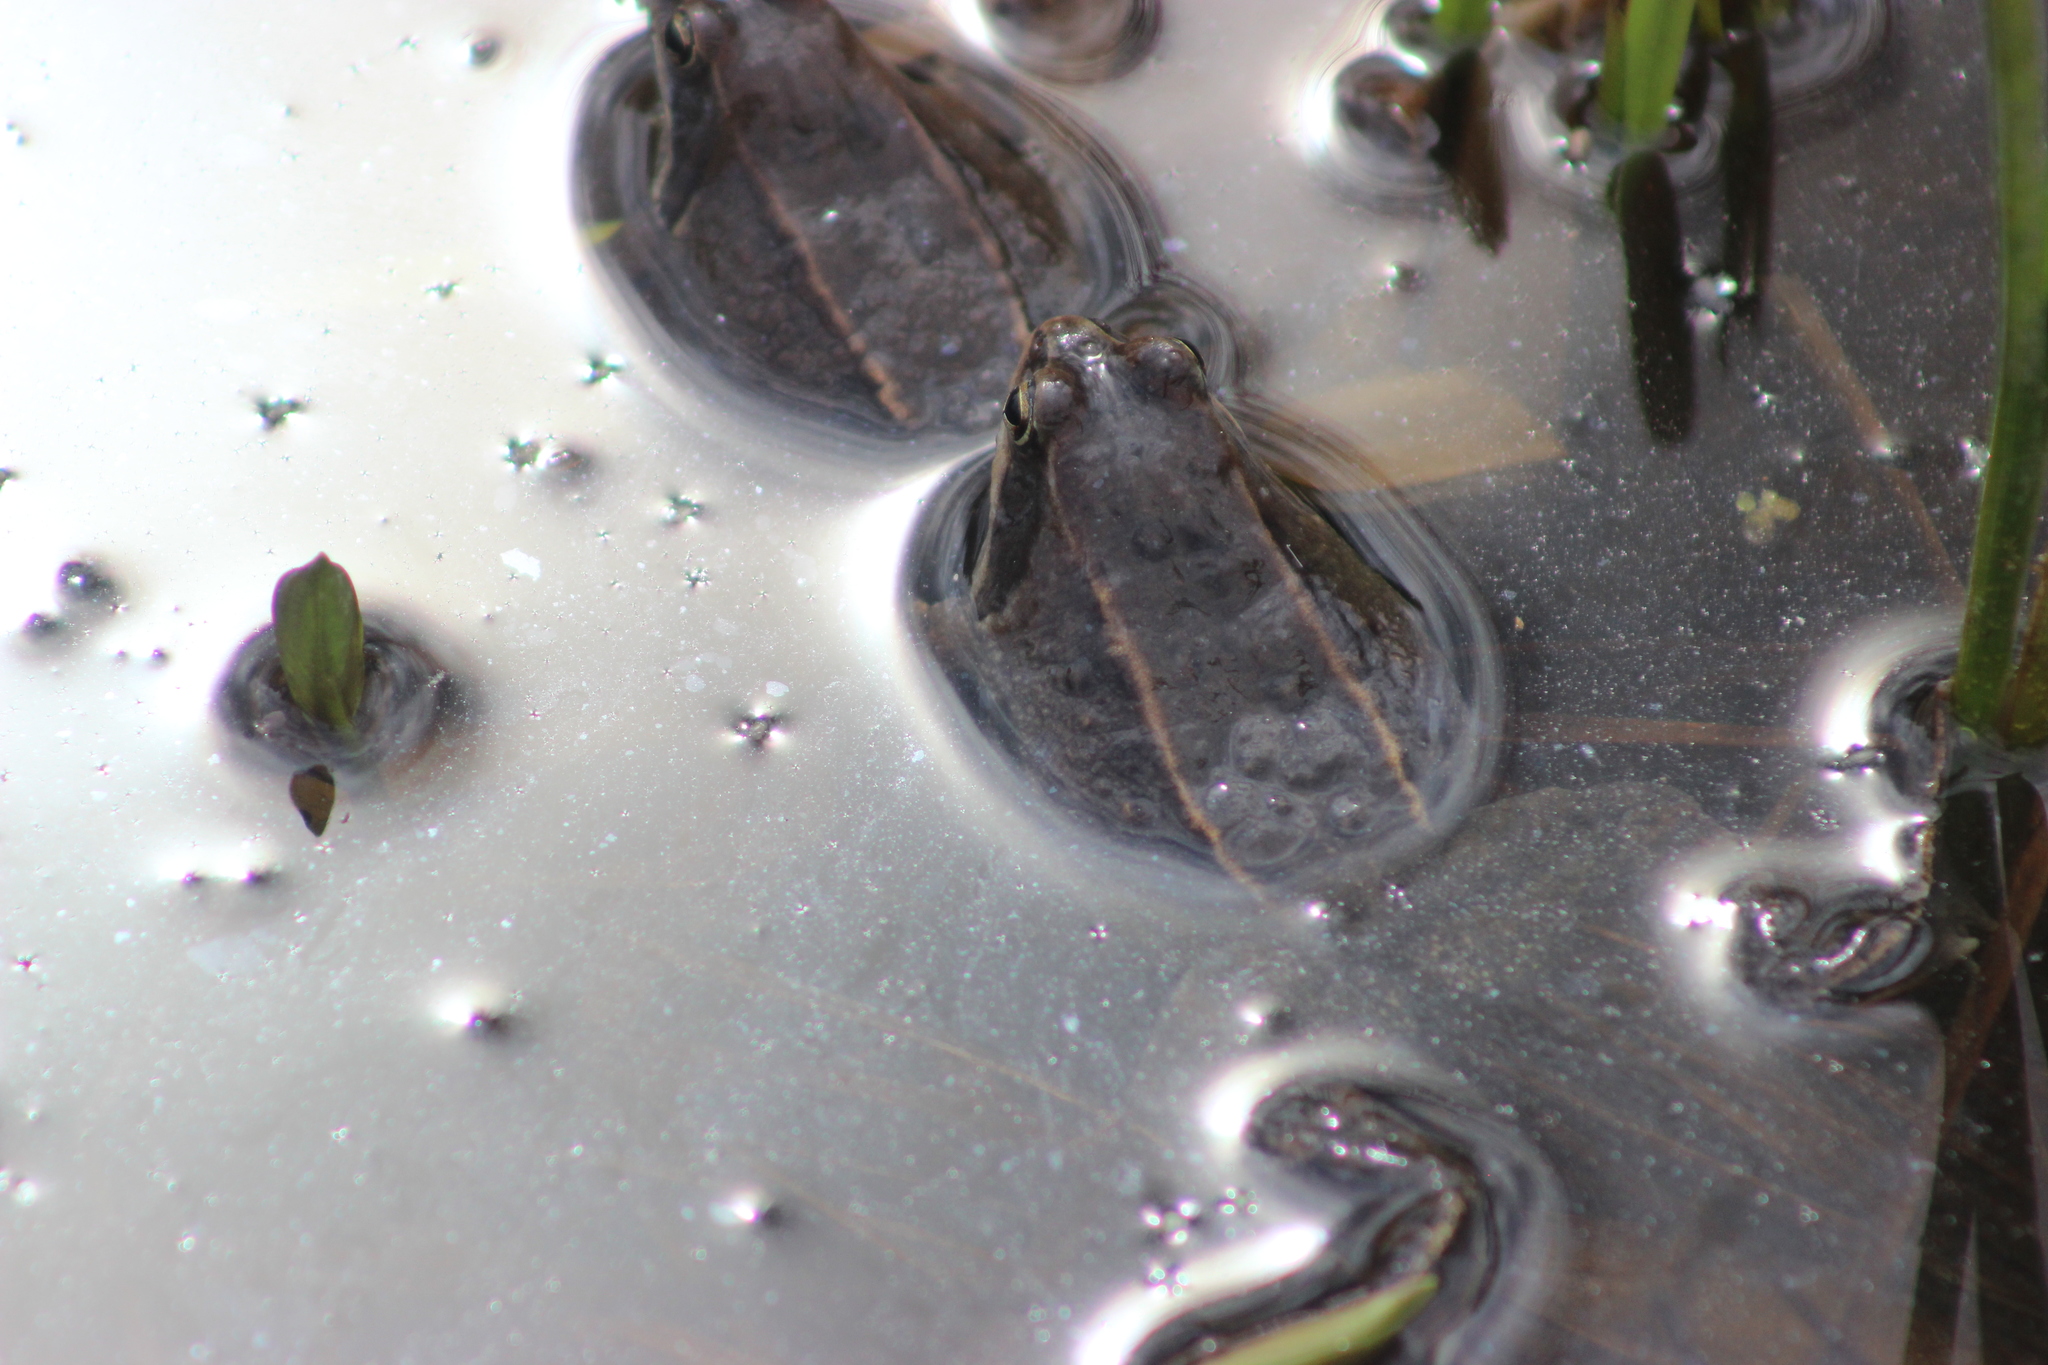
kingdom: Animalia
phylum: Chordata
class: Amphibia
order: Anura
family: Ranidae
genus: Rana
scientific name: Rana arvalis
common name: Moor frog
